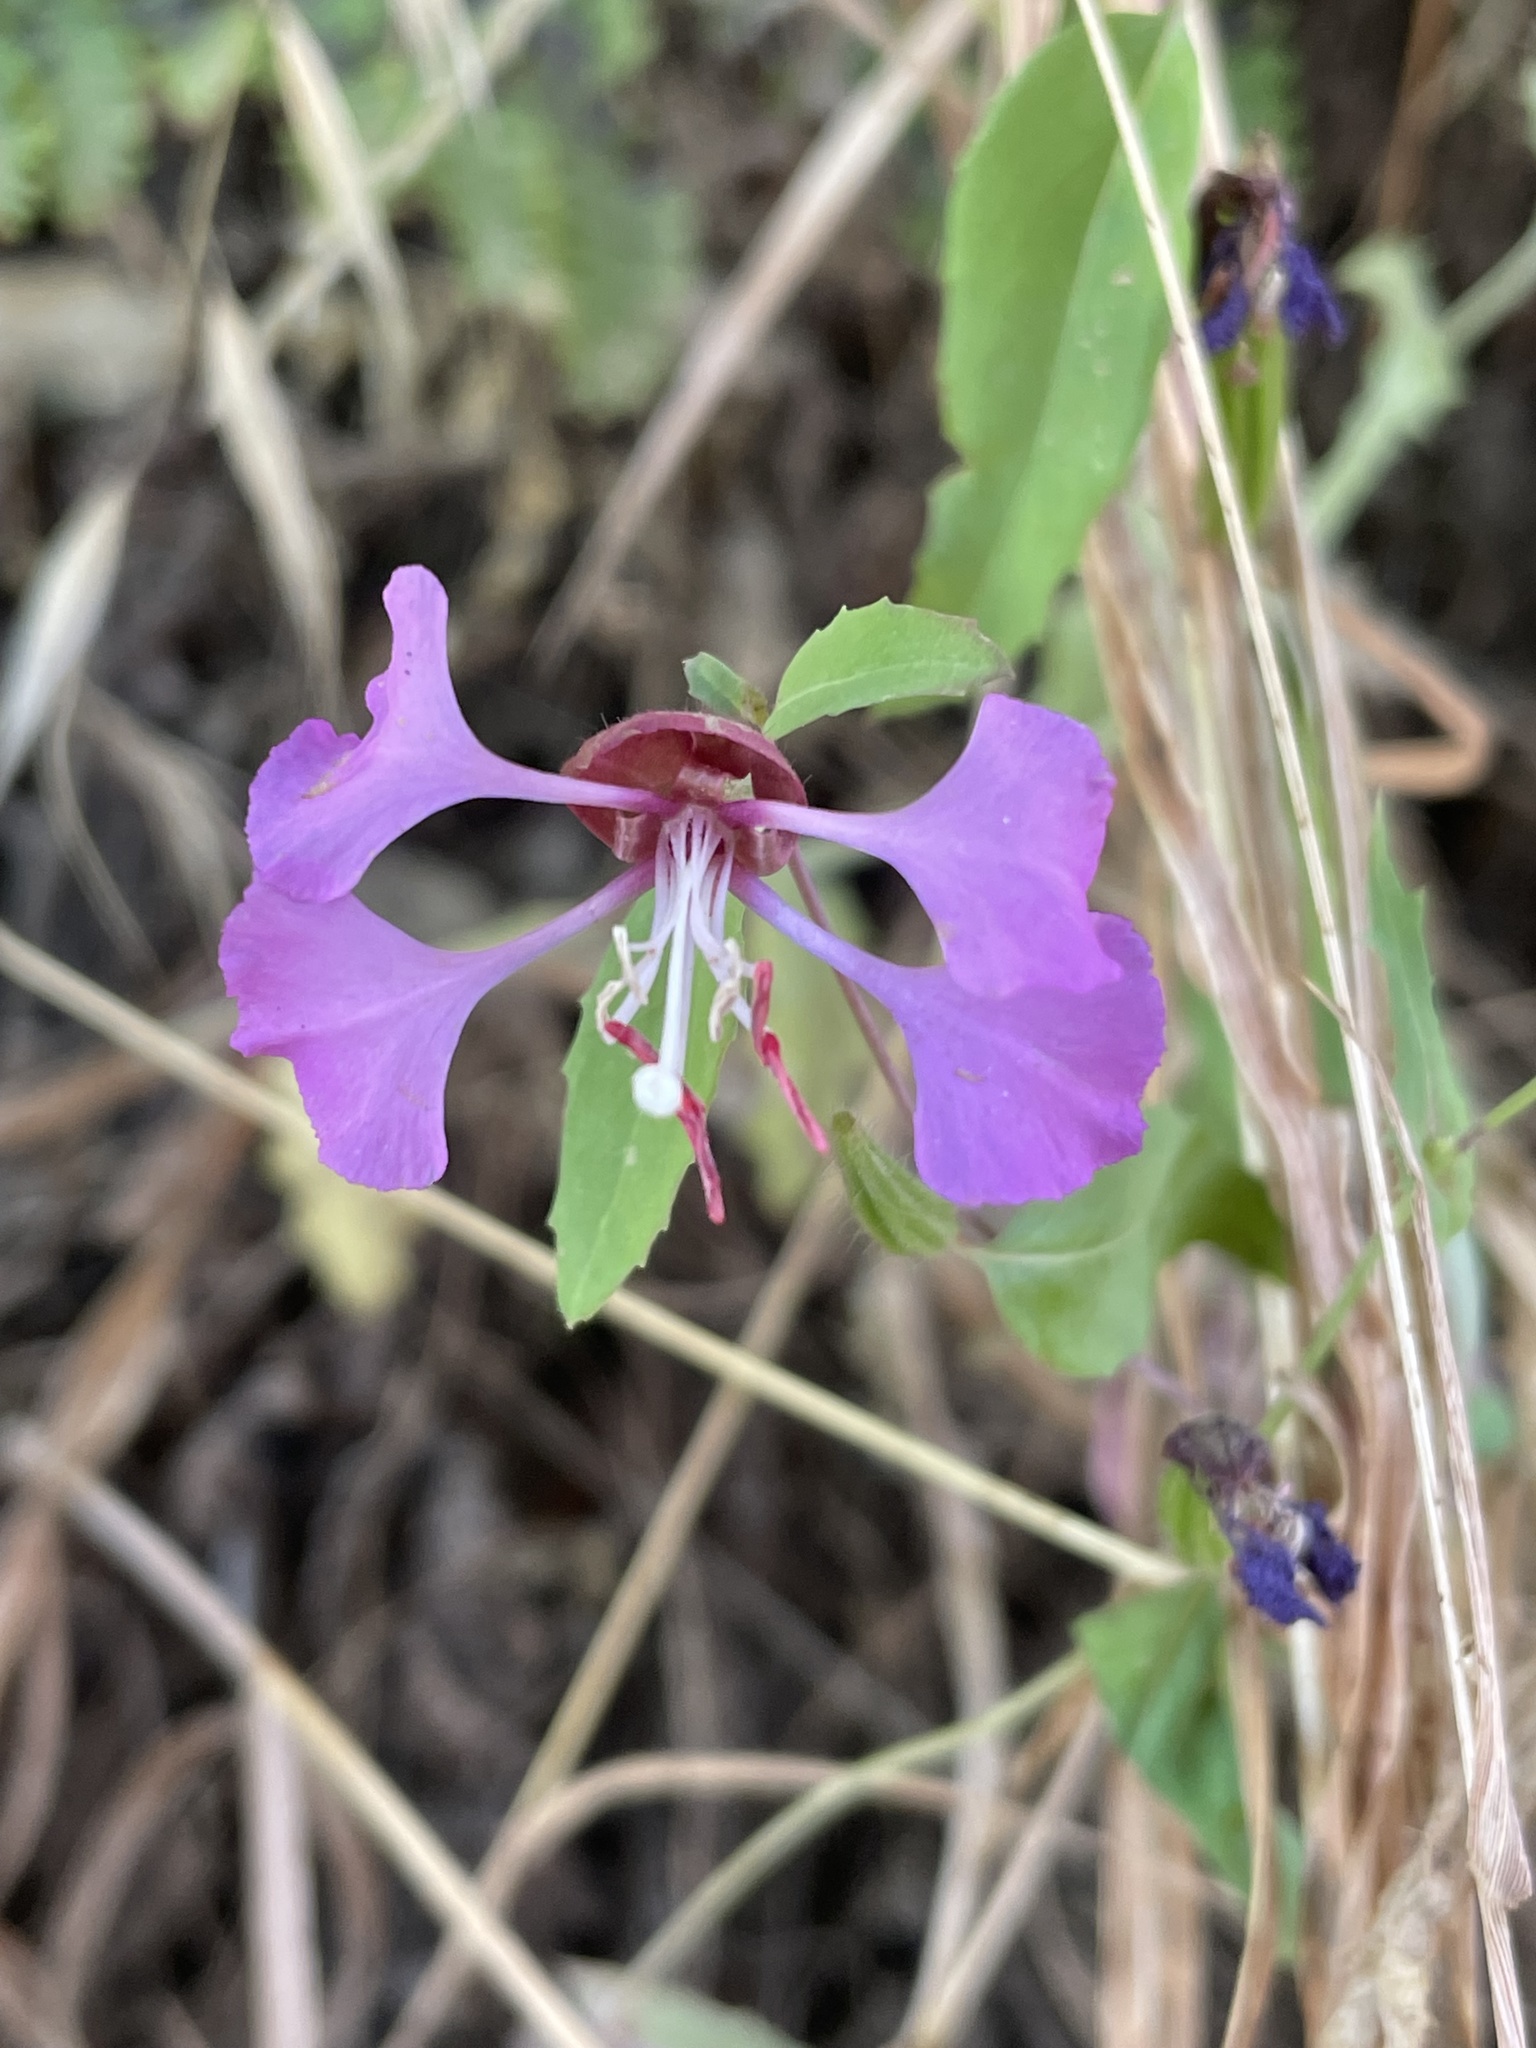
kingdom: Plantae
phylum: Tracheophyta
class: Magnoliopsida
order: Myrtales
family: Onagraceae
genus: Clarkia
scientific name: Clarkia unguiculata
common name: Clarkia
